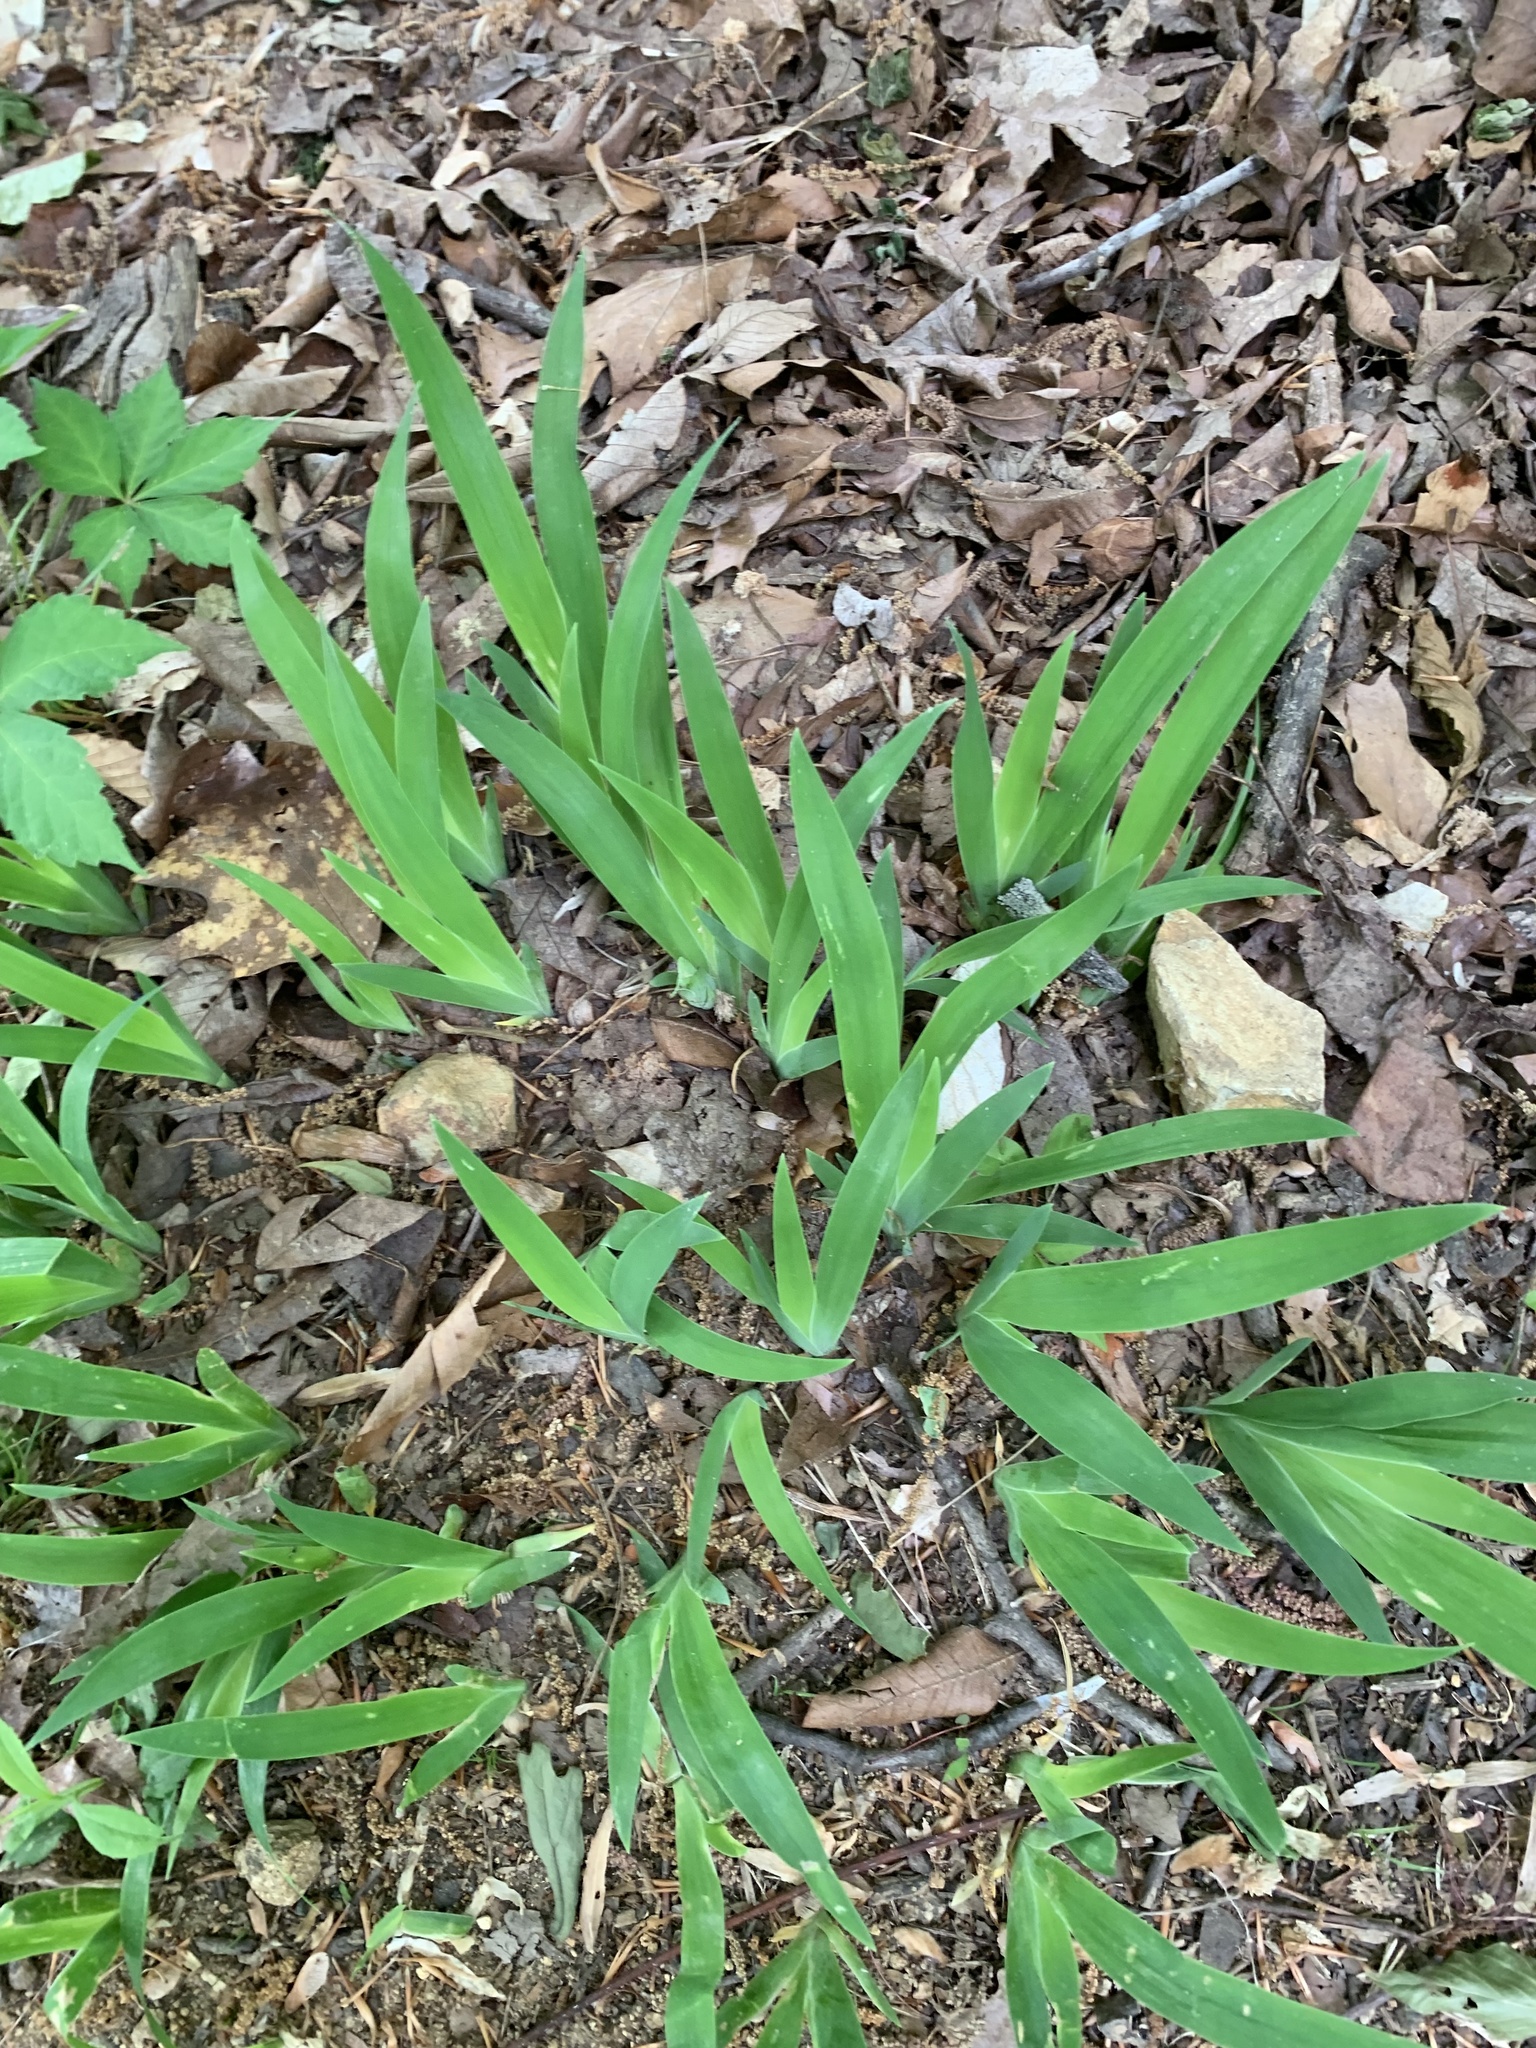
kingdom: Plantae
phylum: Tracheophyta
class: Liliopsida
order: Asparagales
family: Iridaceae
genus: Iris
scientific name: Iris cristata
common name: Crested iris
